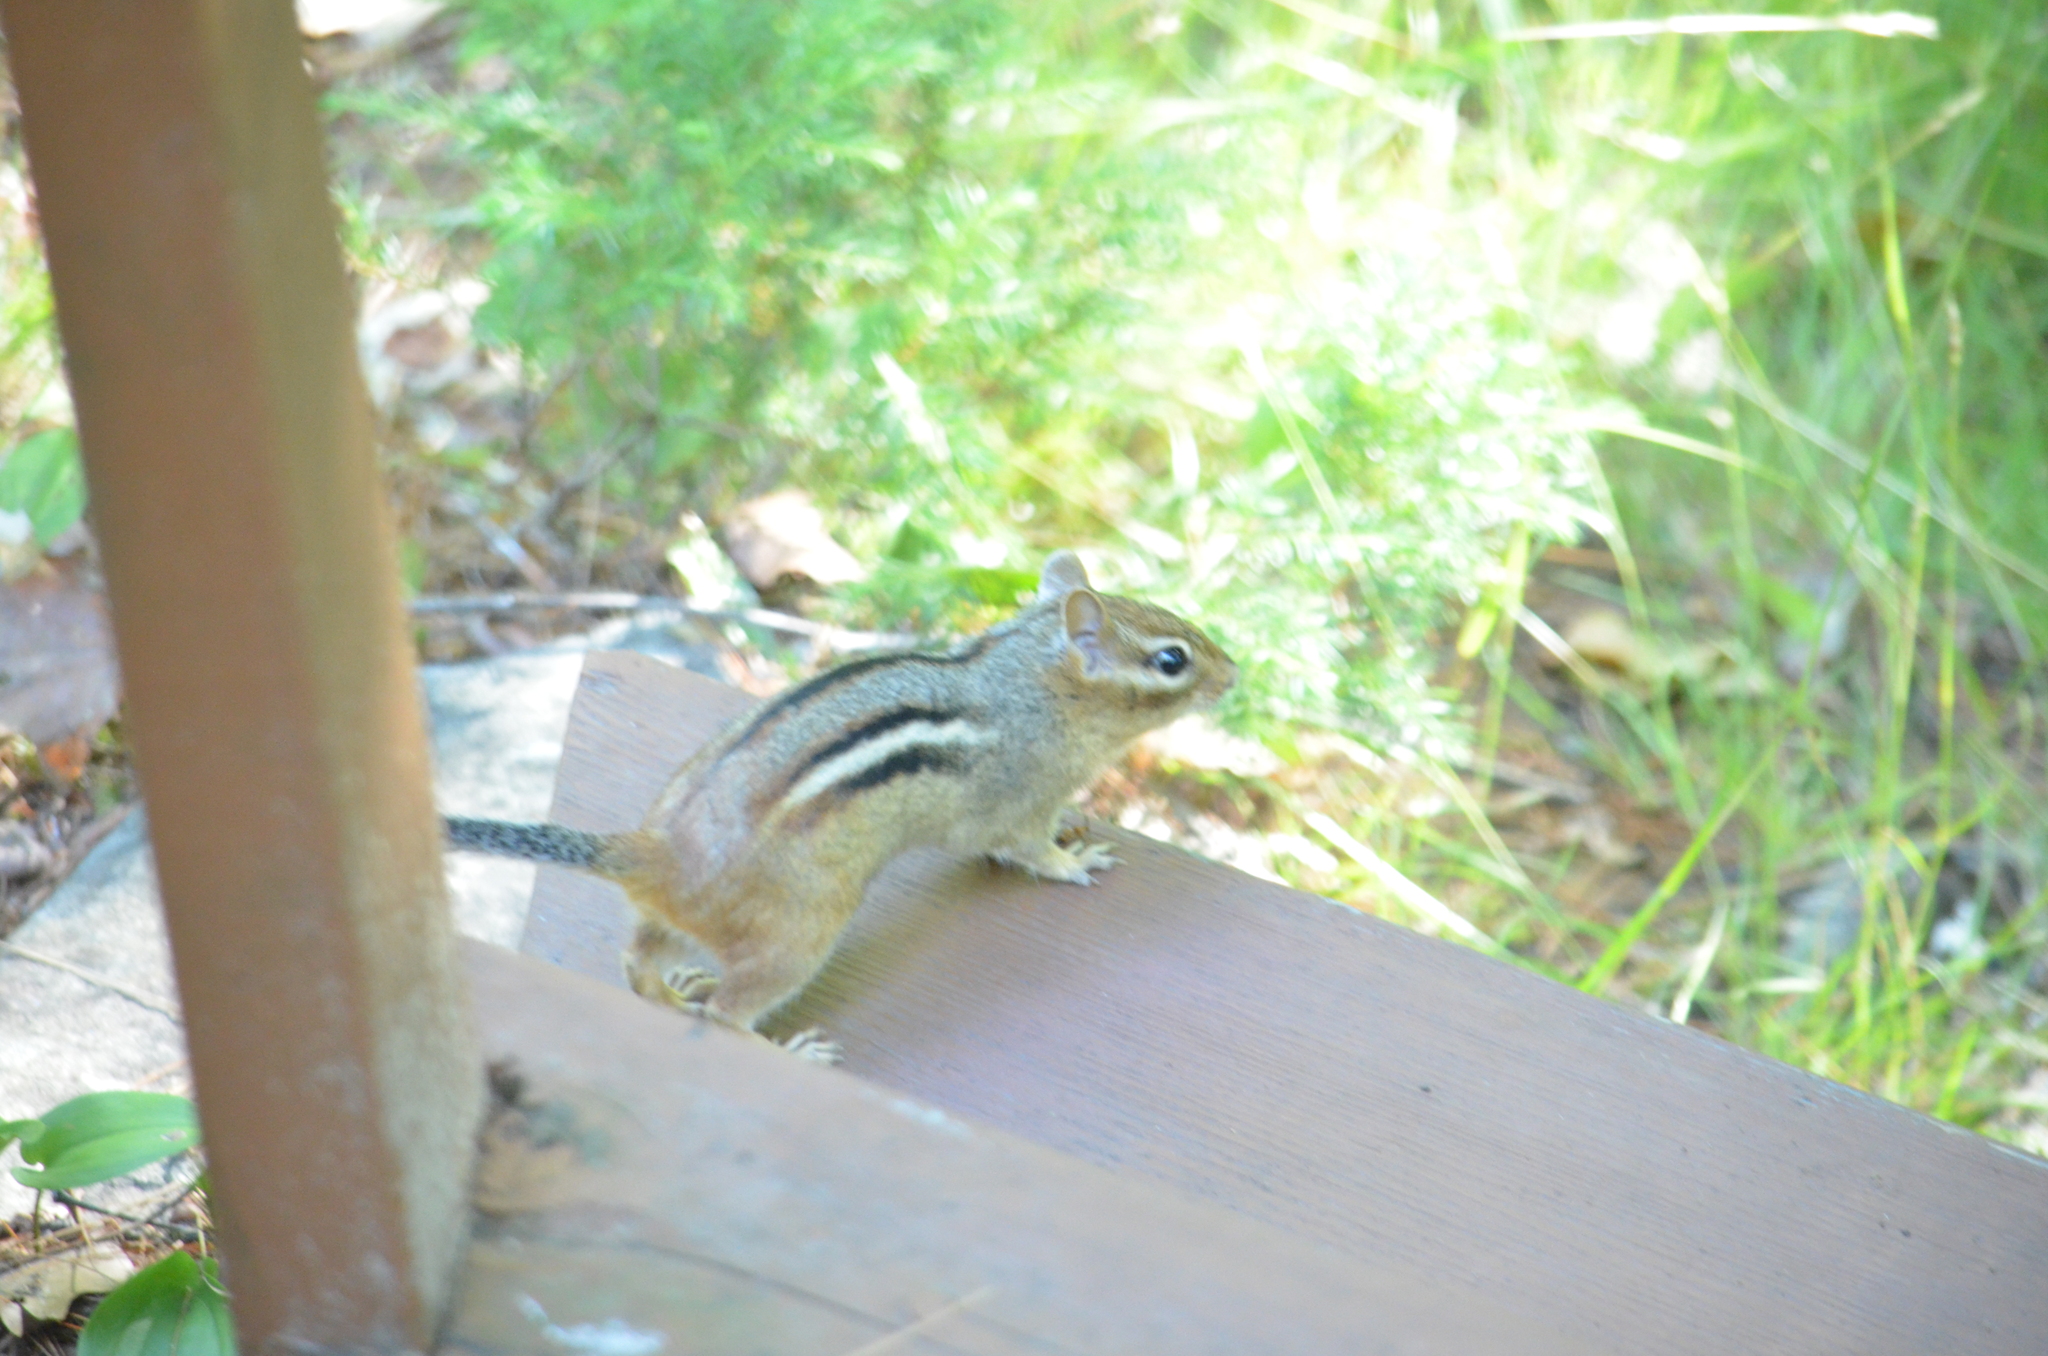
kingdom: Animalia
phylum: Chordata
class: Mammalia
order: Rodentia
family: Sciuridae
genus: Tamias
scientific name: Tamias striatus
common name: Eastern chipmunk
